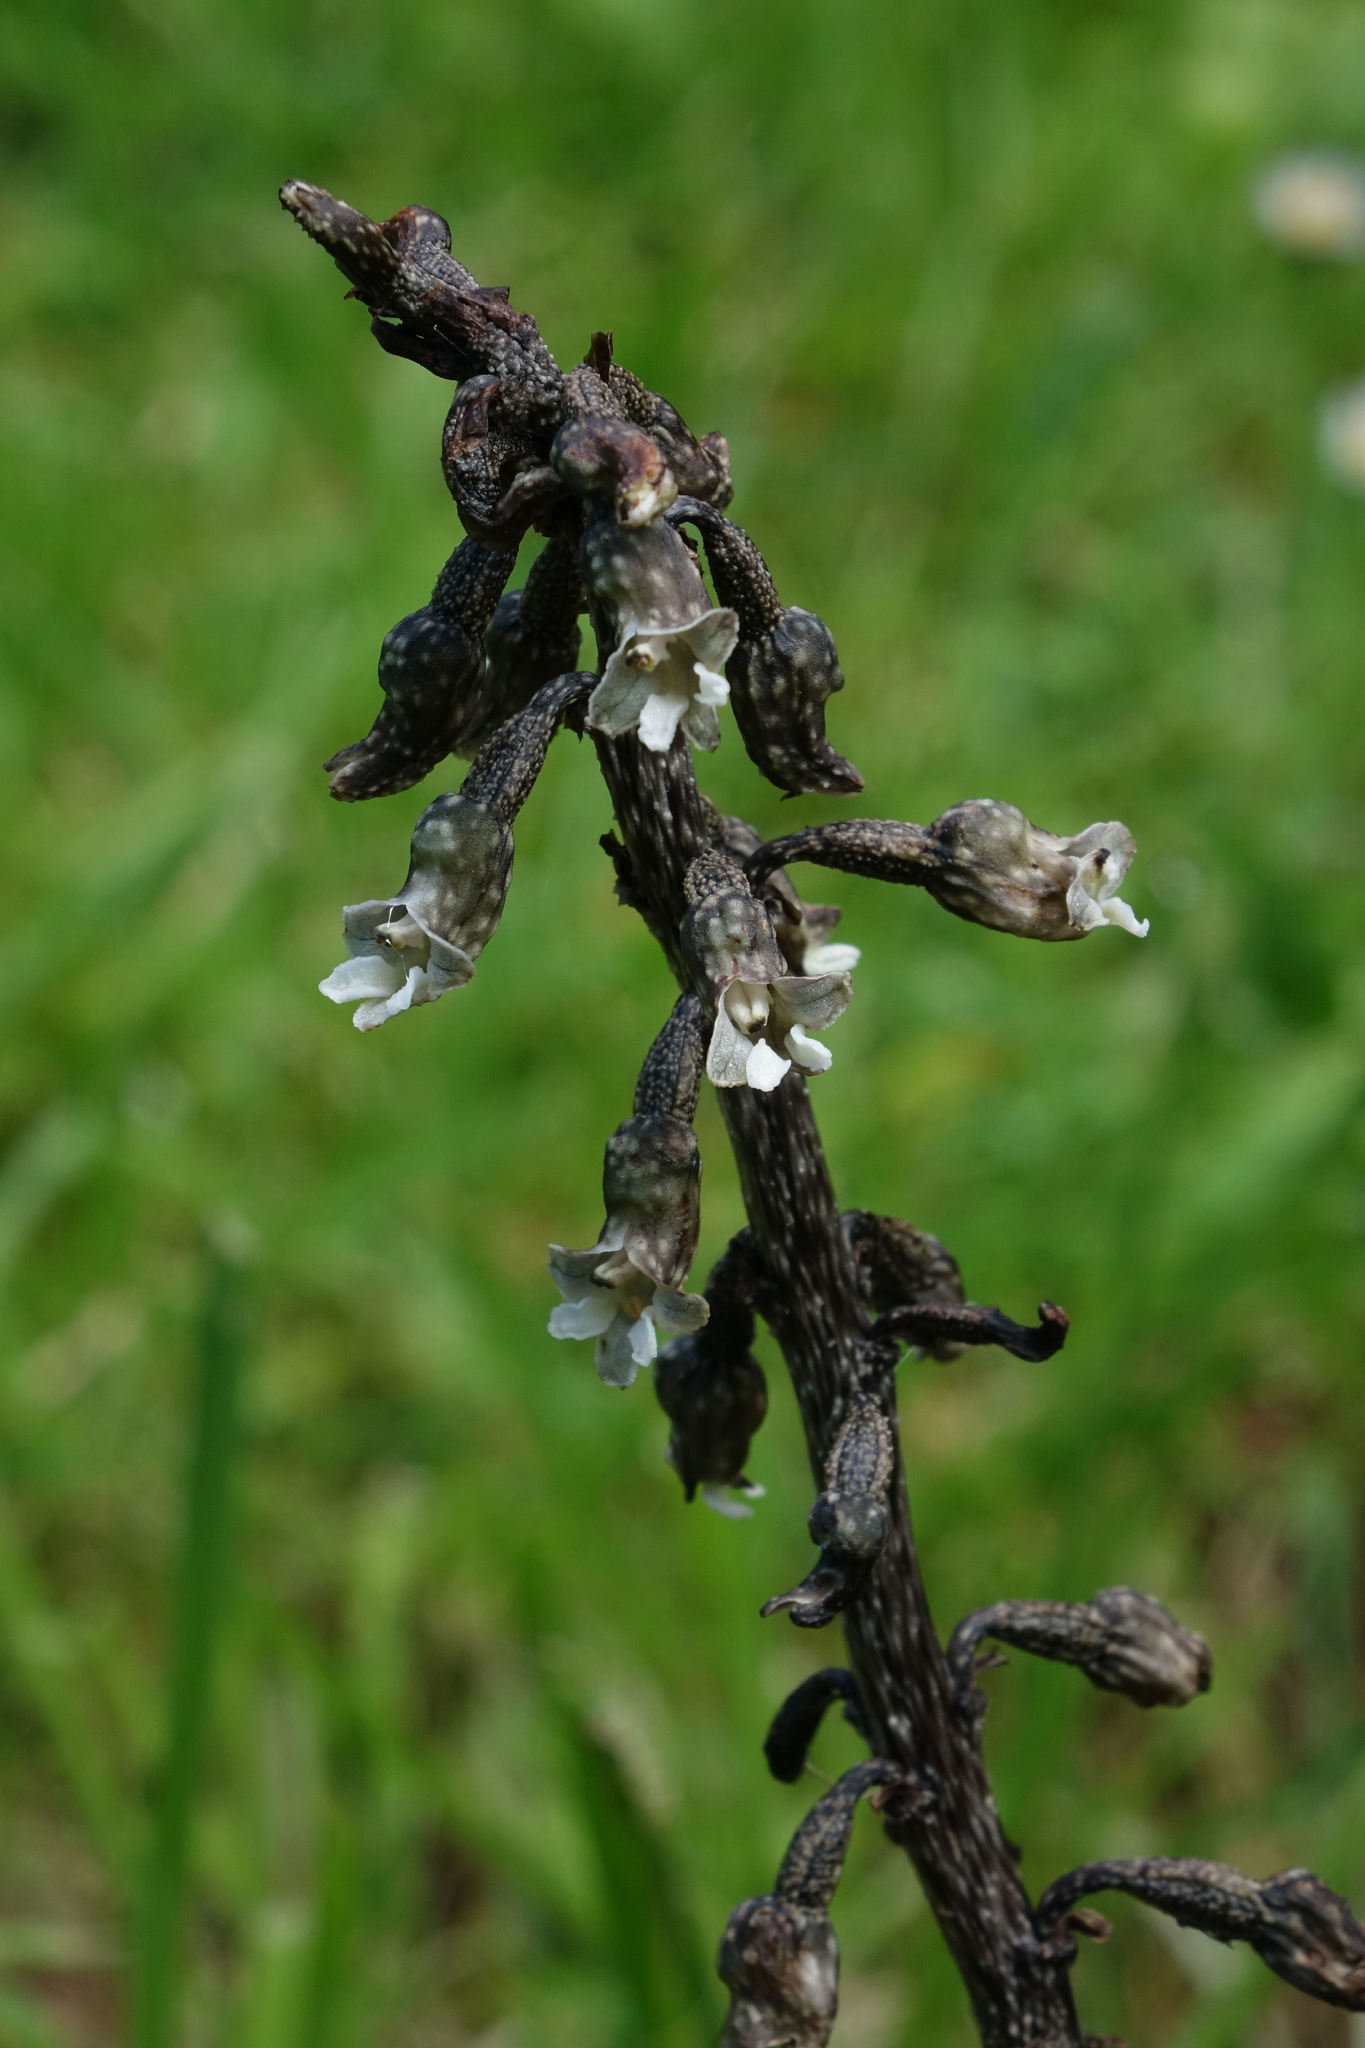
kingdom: Plantae
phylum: Tracheophyta
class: Liliopsida
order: Asparagales
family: Orchidaceae
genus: Gastrodia
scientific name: Gastrodia cunninghamii
